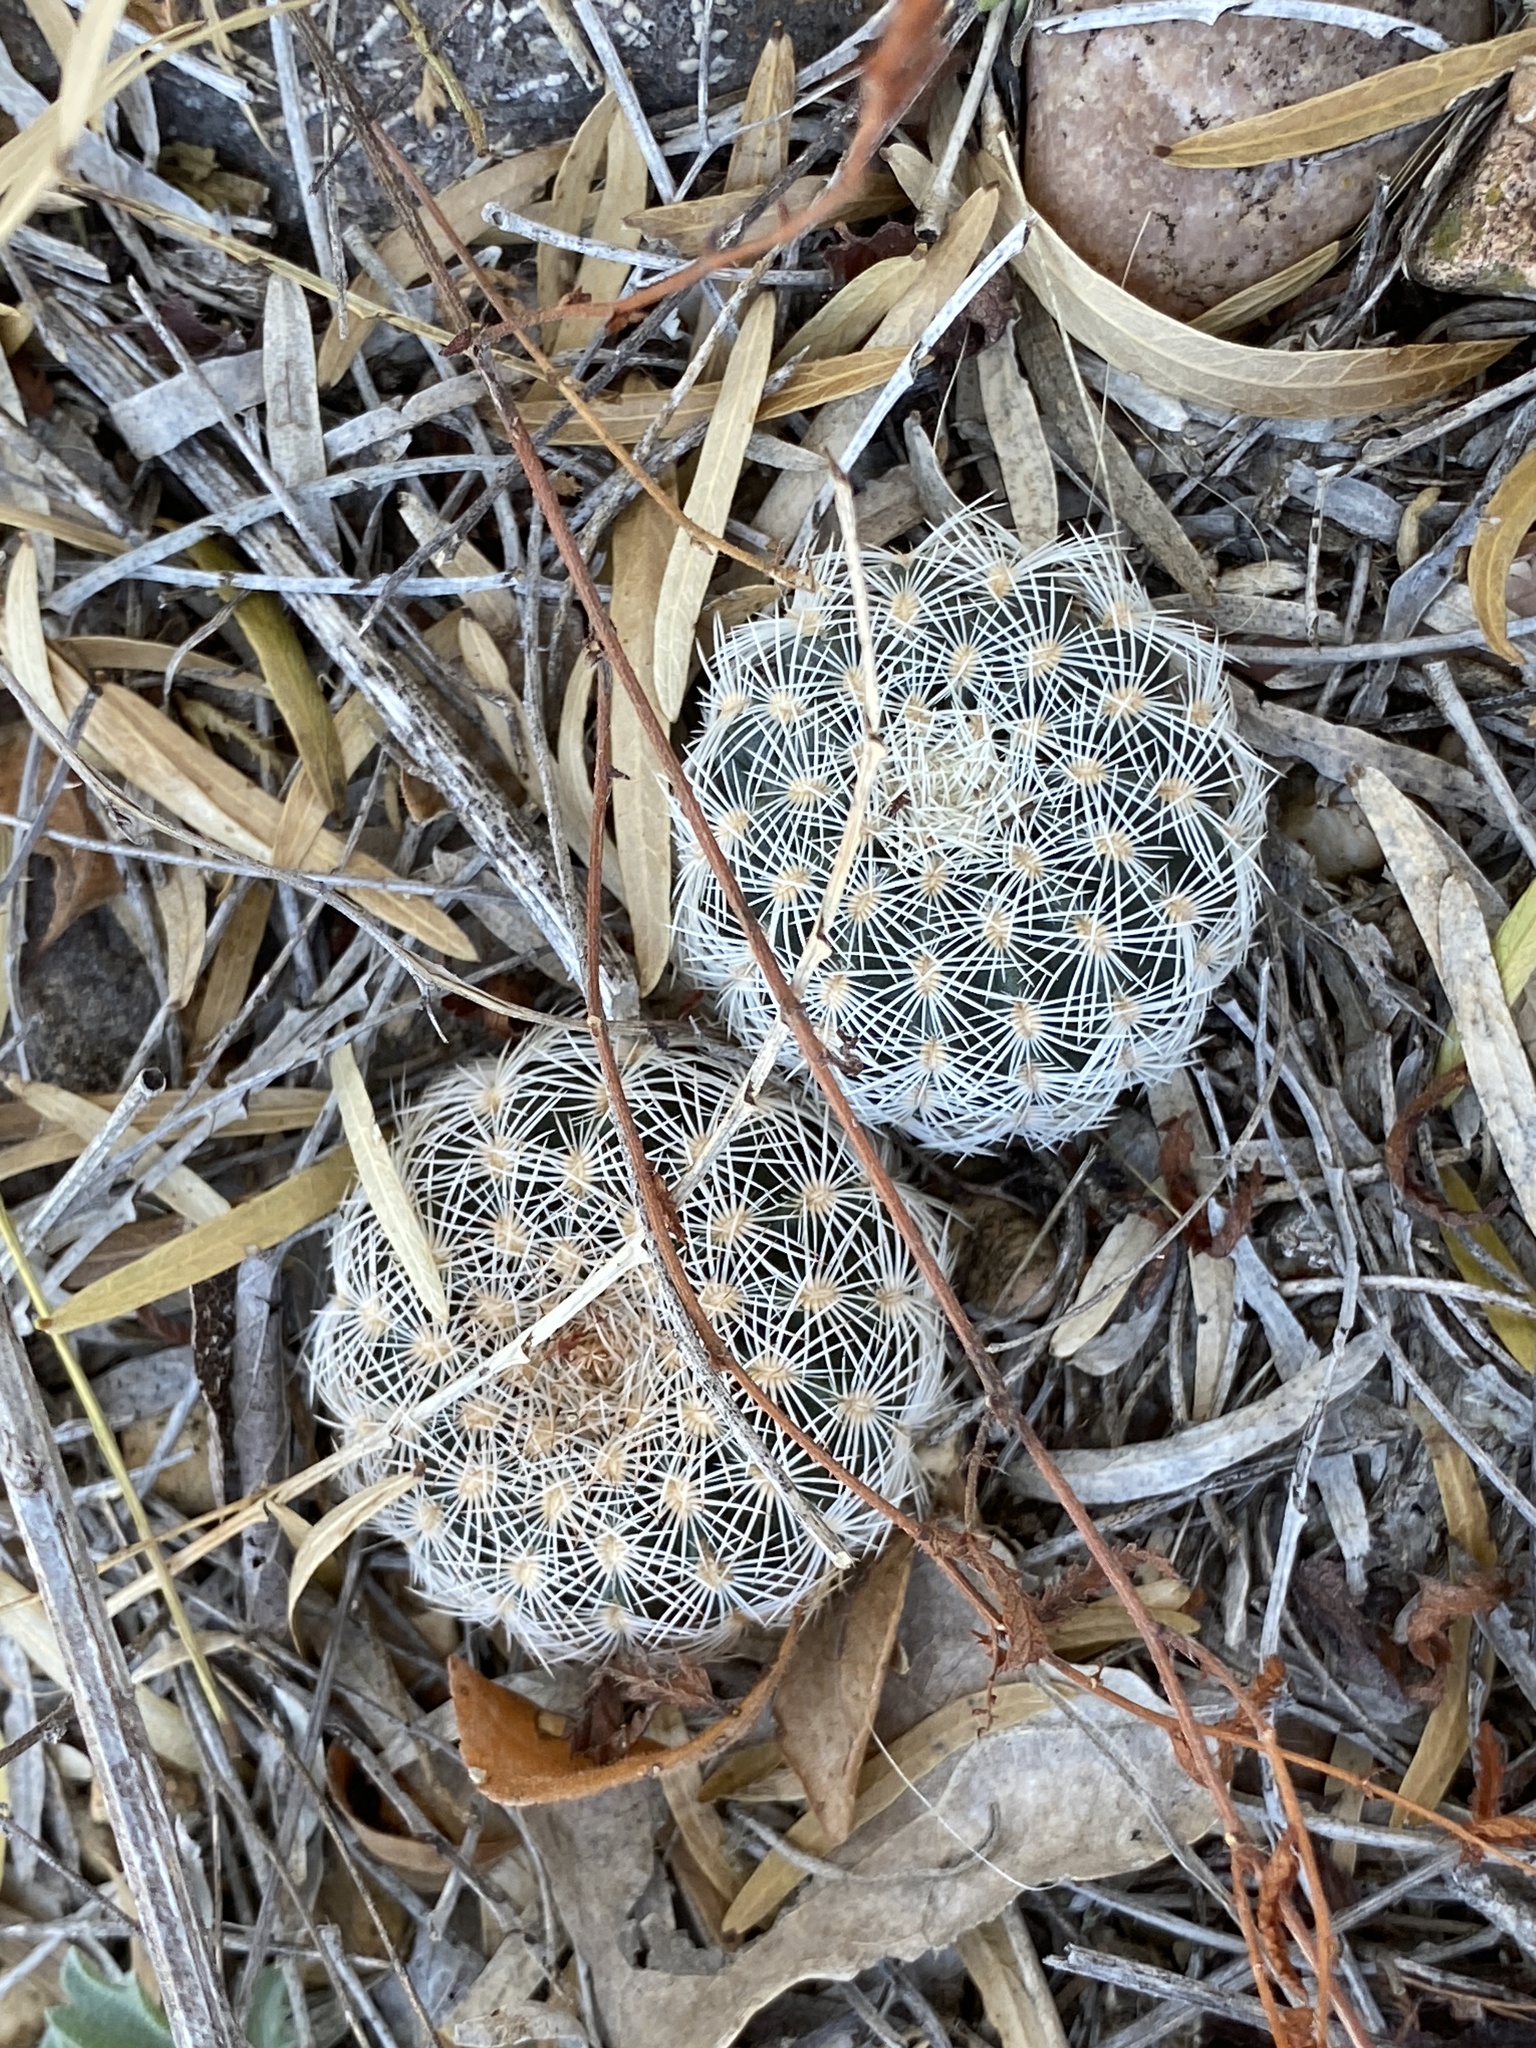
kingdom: Plantae
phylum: Tracheophyta
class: Magnoliopsida
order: Caryophyllales
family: Cactaceae
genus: Echinocereus
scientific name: Echinocereus reichenbachii
